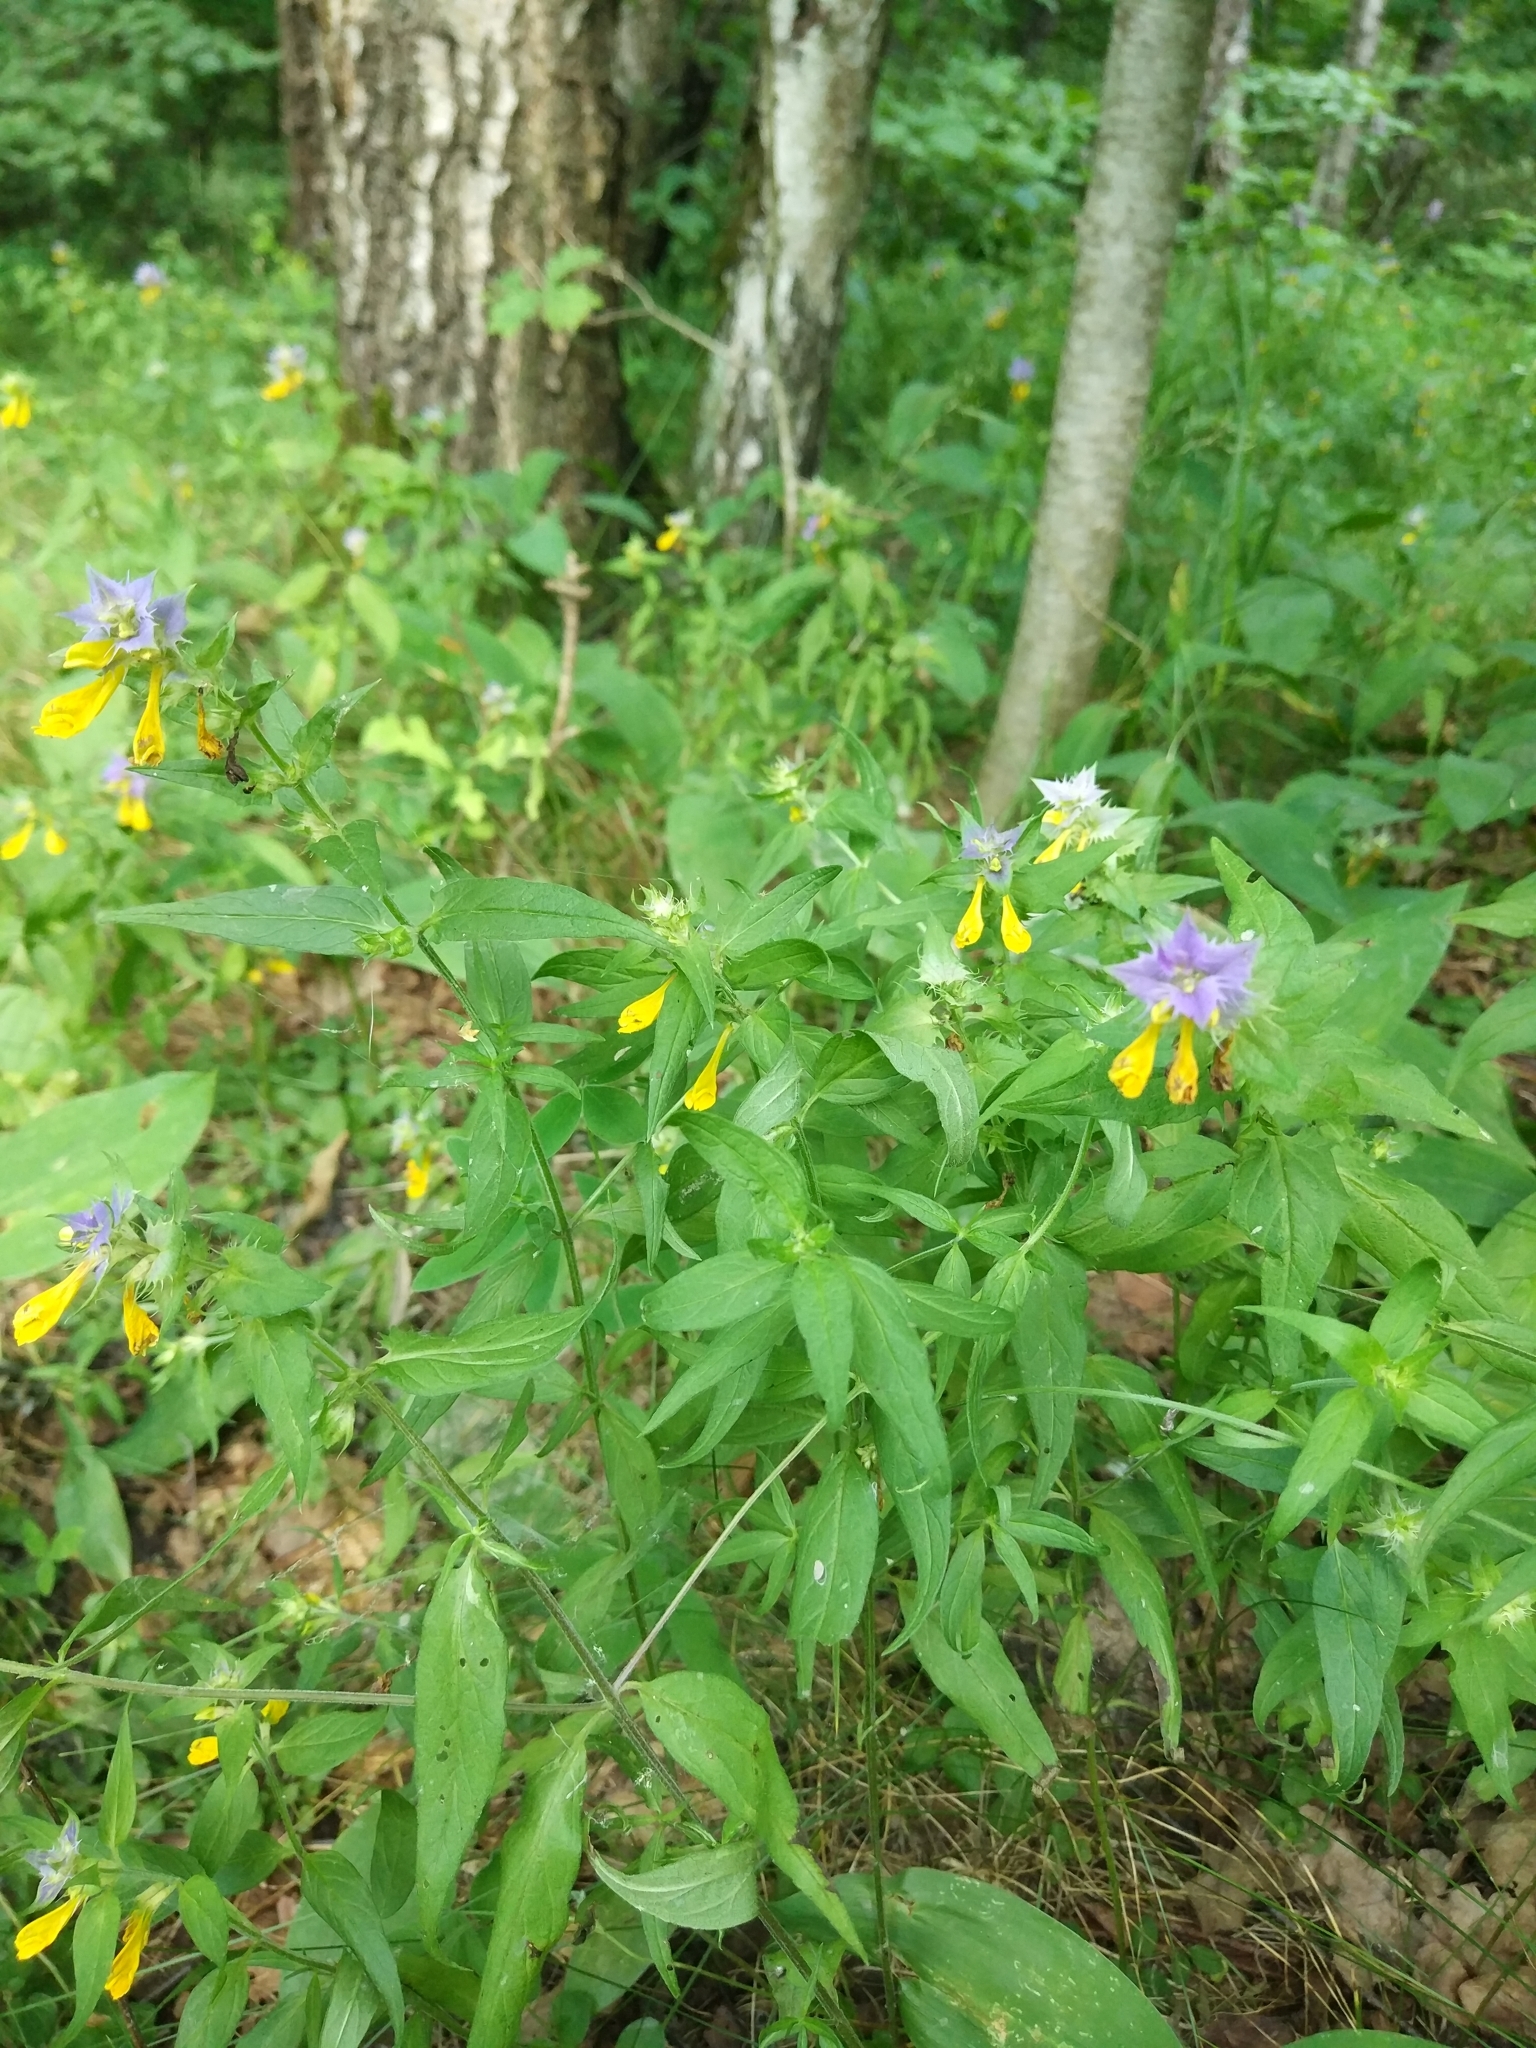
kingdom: Plantae
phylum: Tracheophyta
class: Magnoliopsida
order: Lamiales
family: Orobanchaceae
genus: Melampyrum
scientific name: Melampyrum nemorosum
